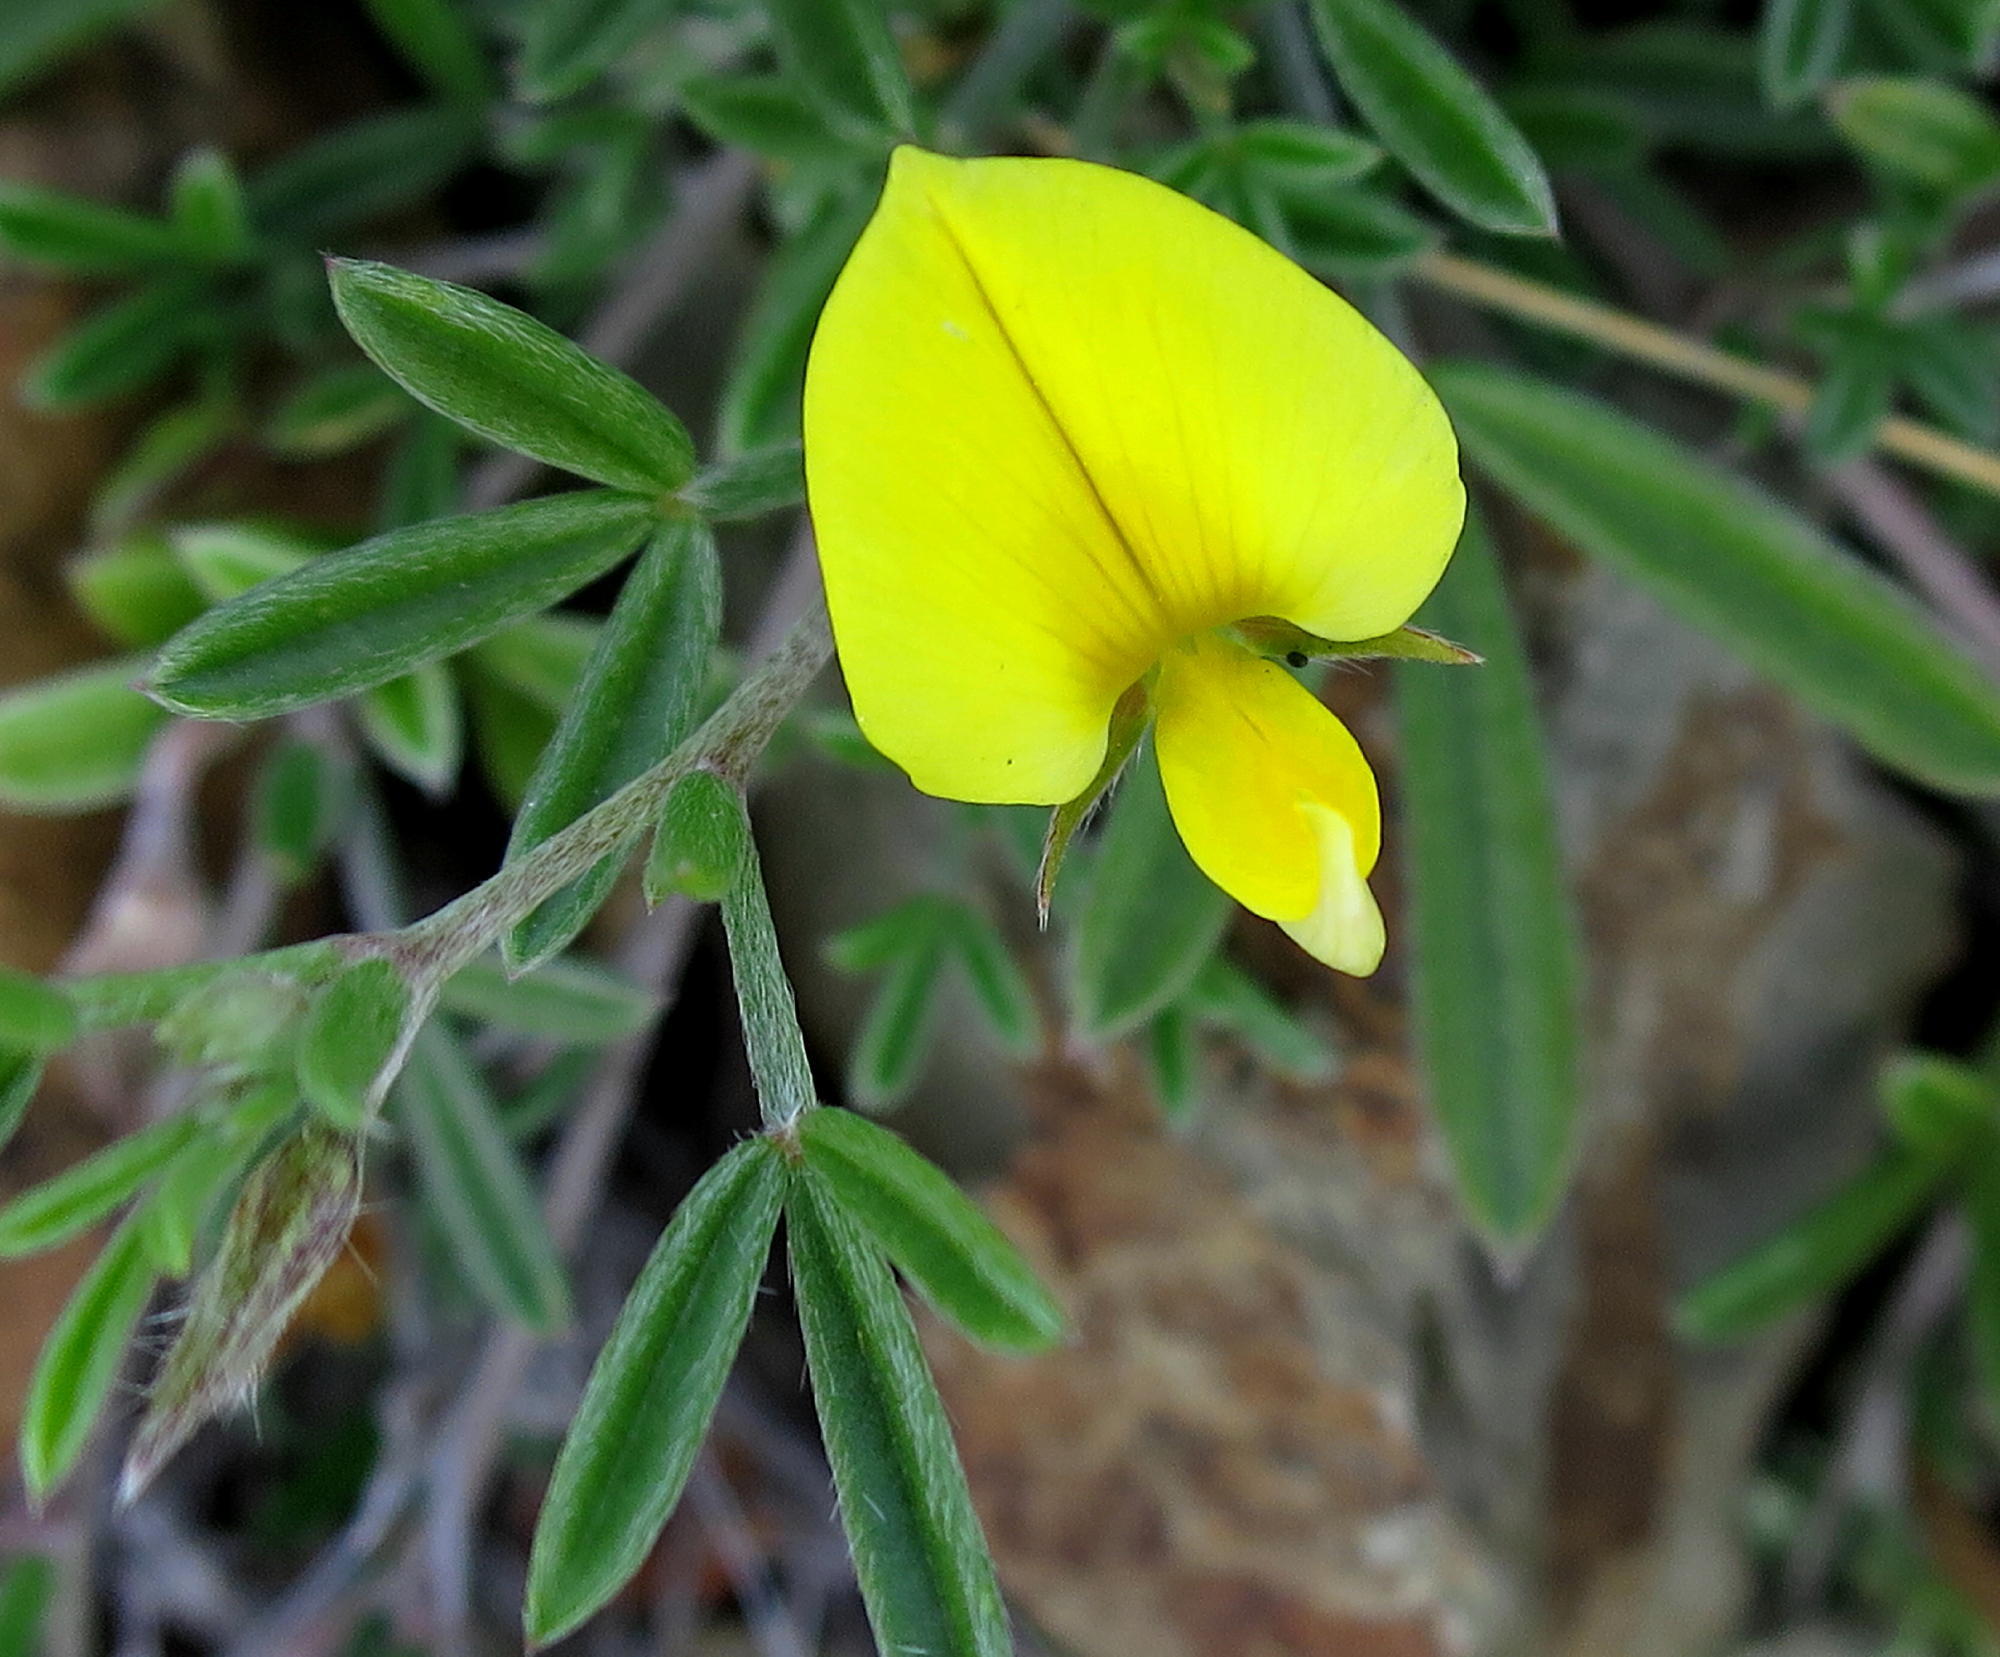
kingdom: Plantae
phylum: Tracheophyta
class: Magnoliopsida
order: Fabales
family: Fabaceae
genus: Lotononis
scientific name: Lotononis pungens
